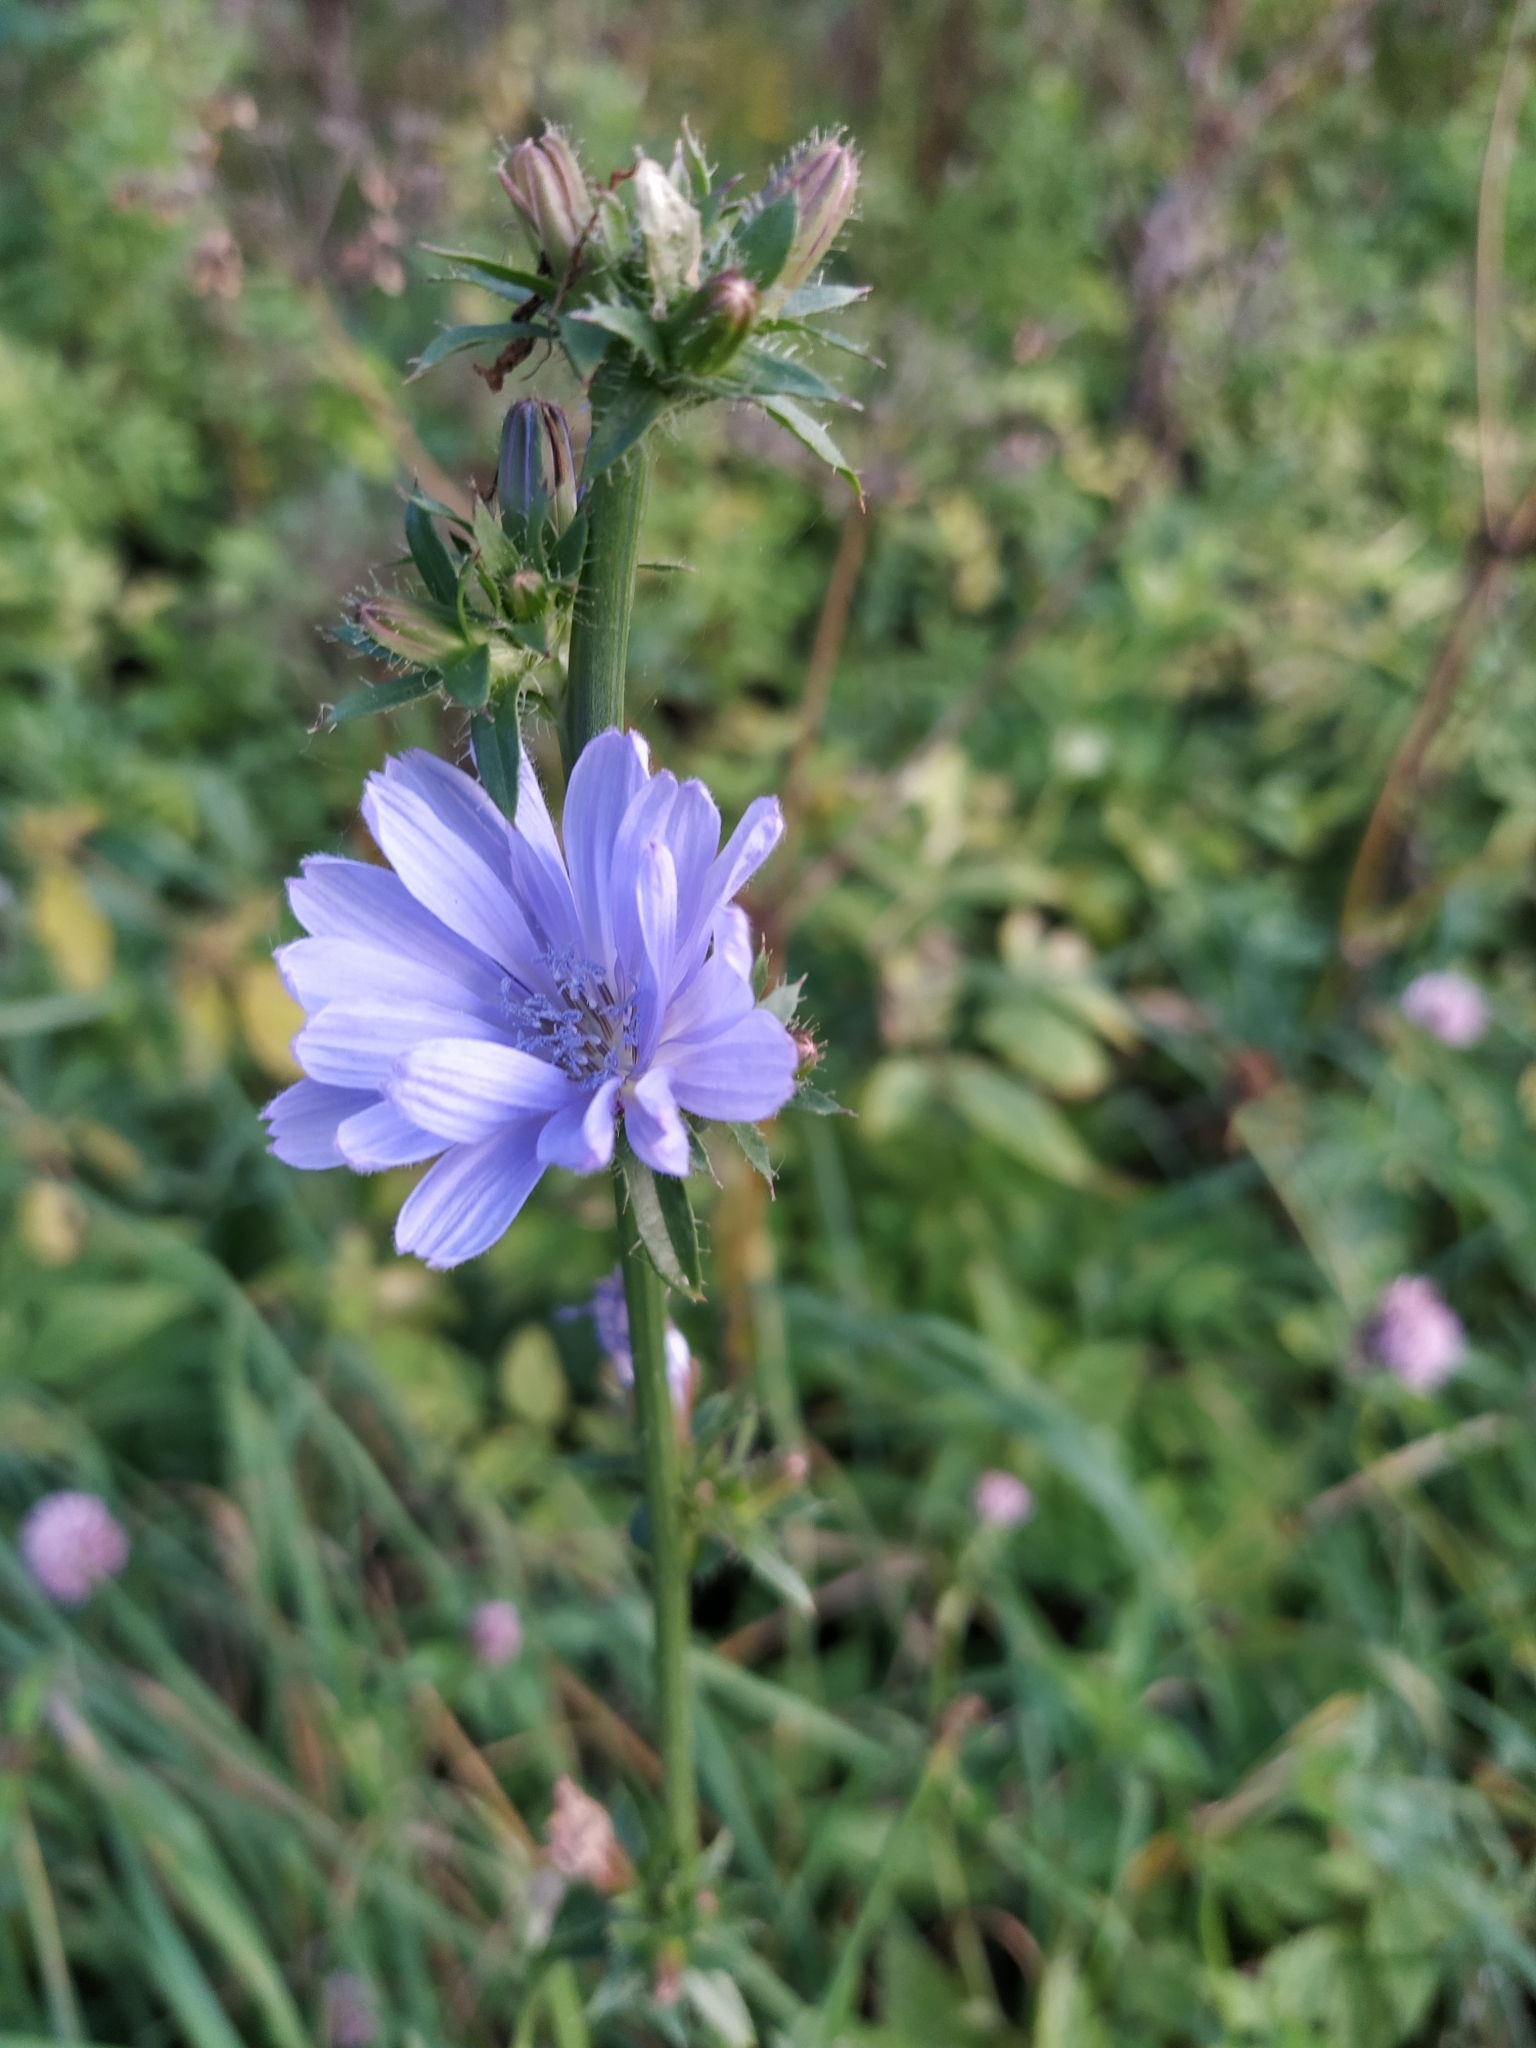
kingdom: Plantae
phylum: Tracheophyta
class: Magnoliopsida
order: Asterales
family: Asteraceae
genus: Cichorium
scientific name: Cichorium intybus
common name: Chicory
